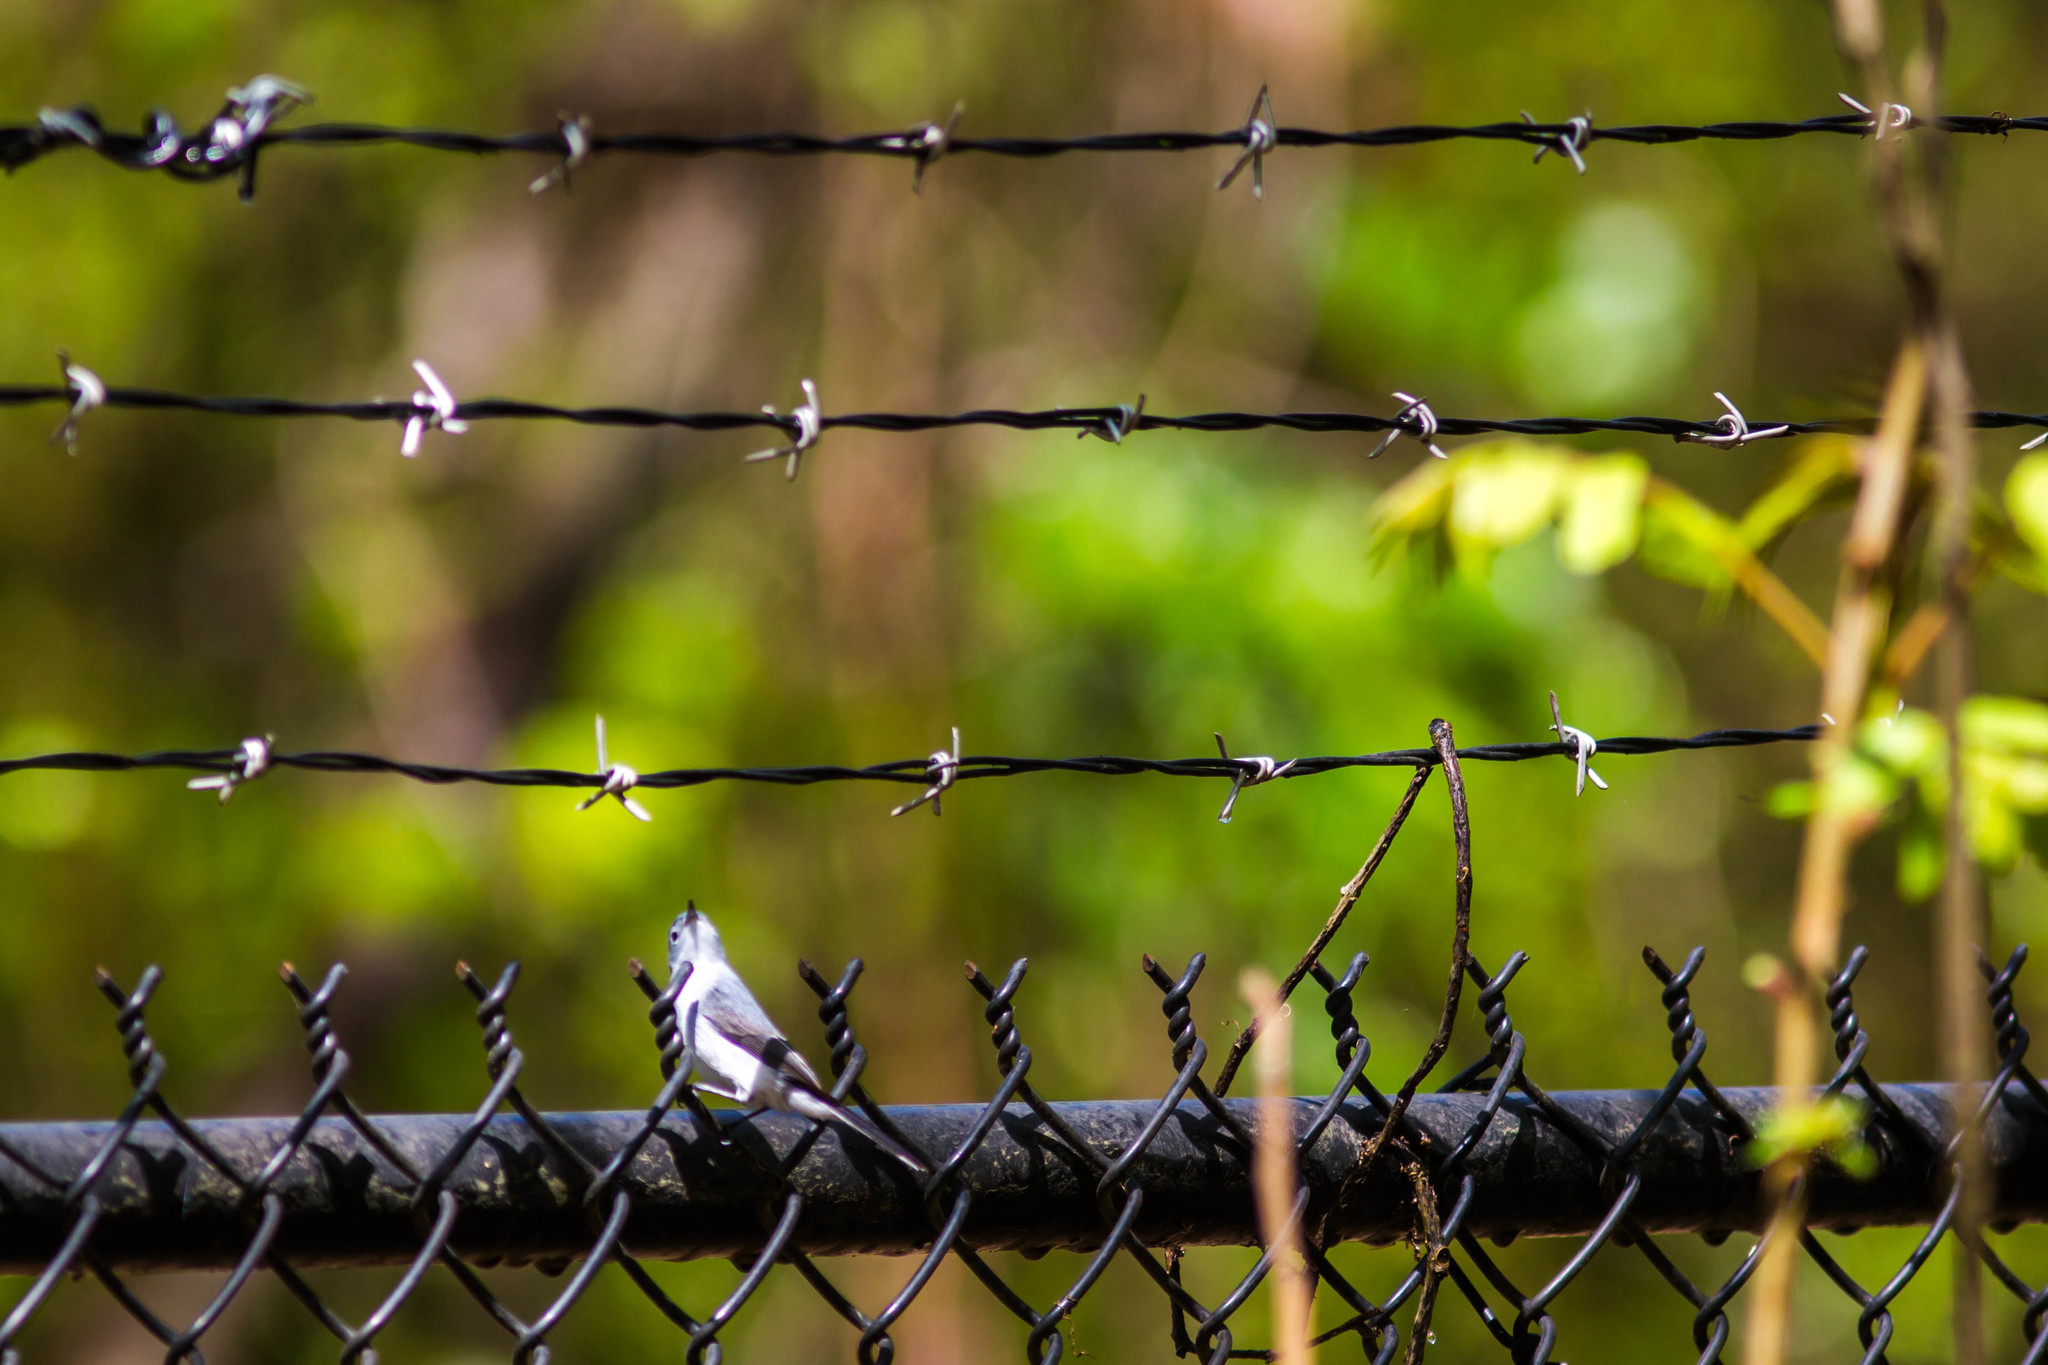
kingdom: Animalia
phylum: Chordata
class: Aves
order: Passeriformes
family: Polioptilidae
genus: Polioptila
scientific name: Polioptila caerulea
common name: Blue-gray gnatcatcher
